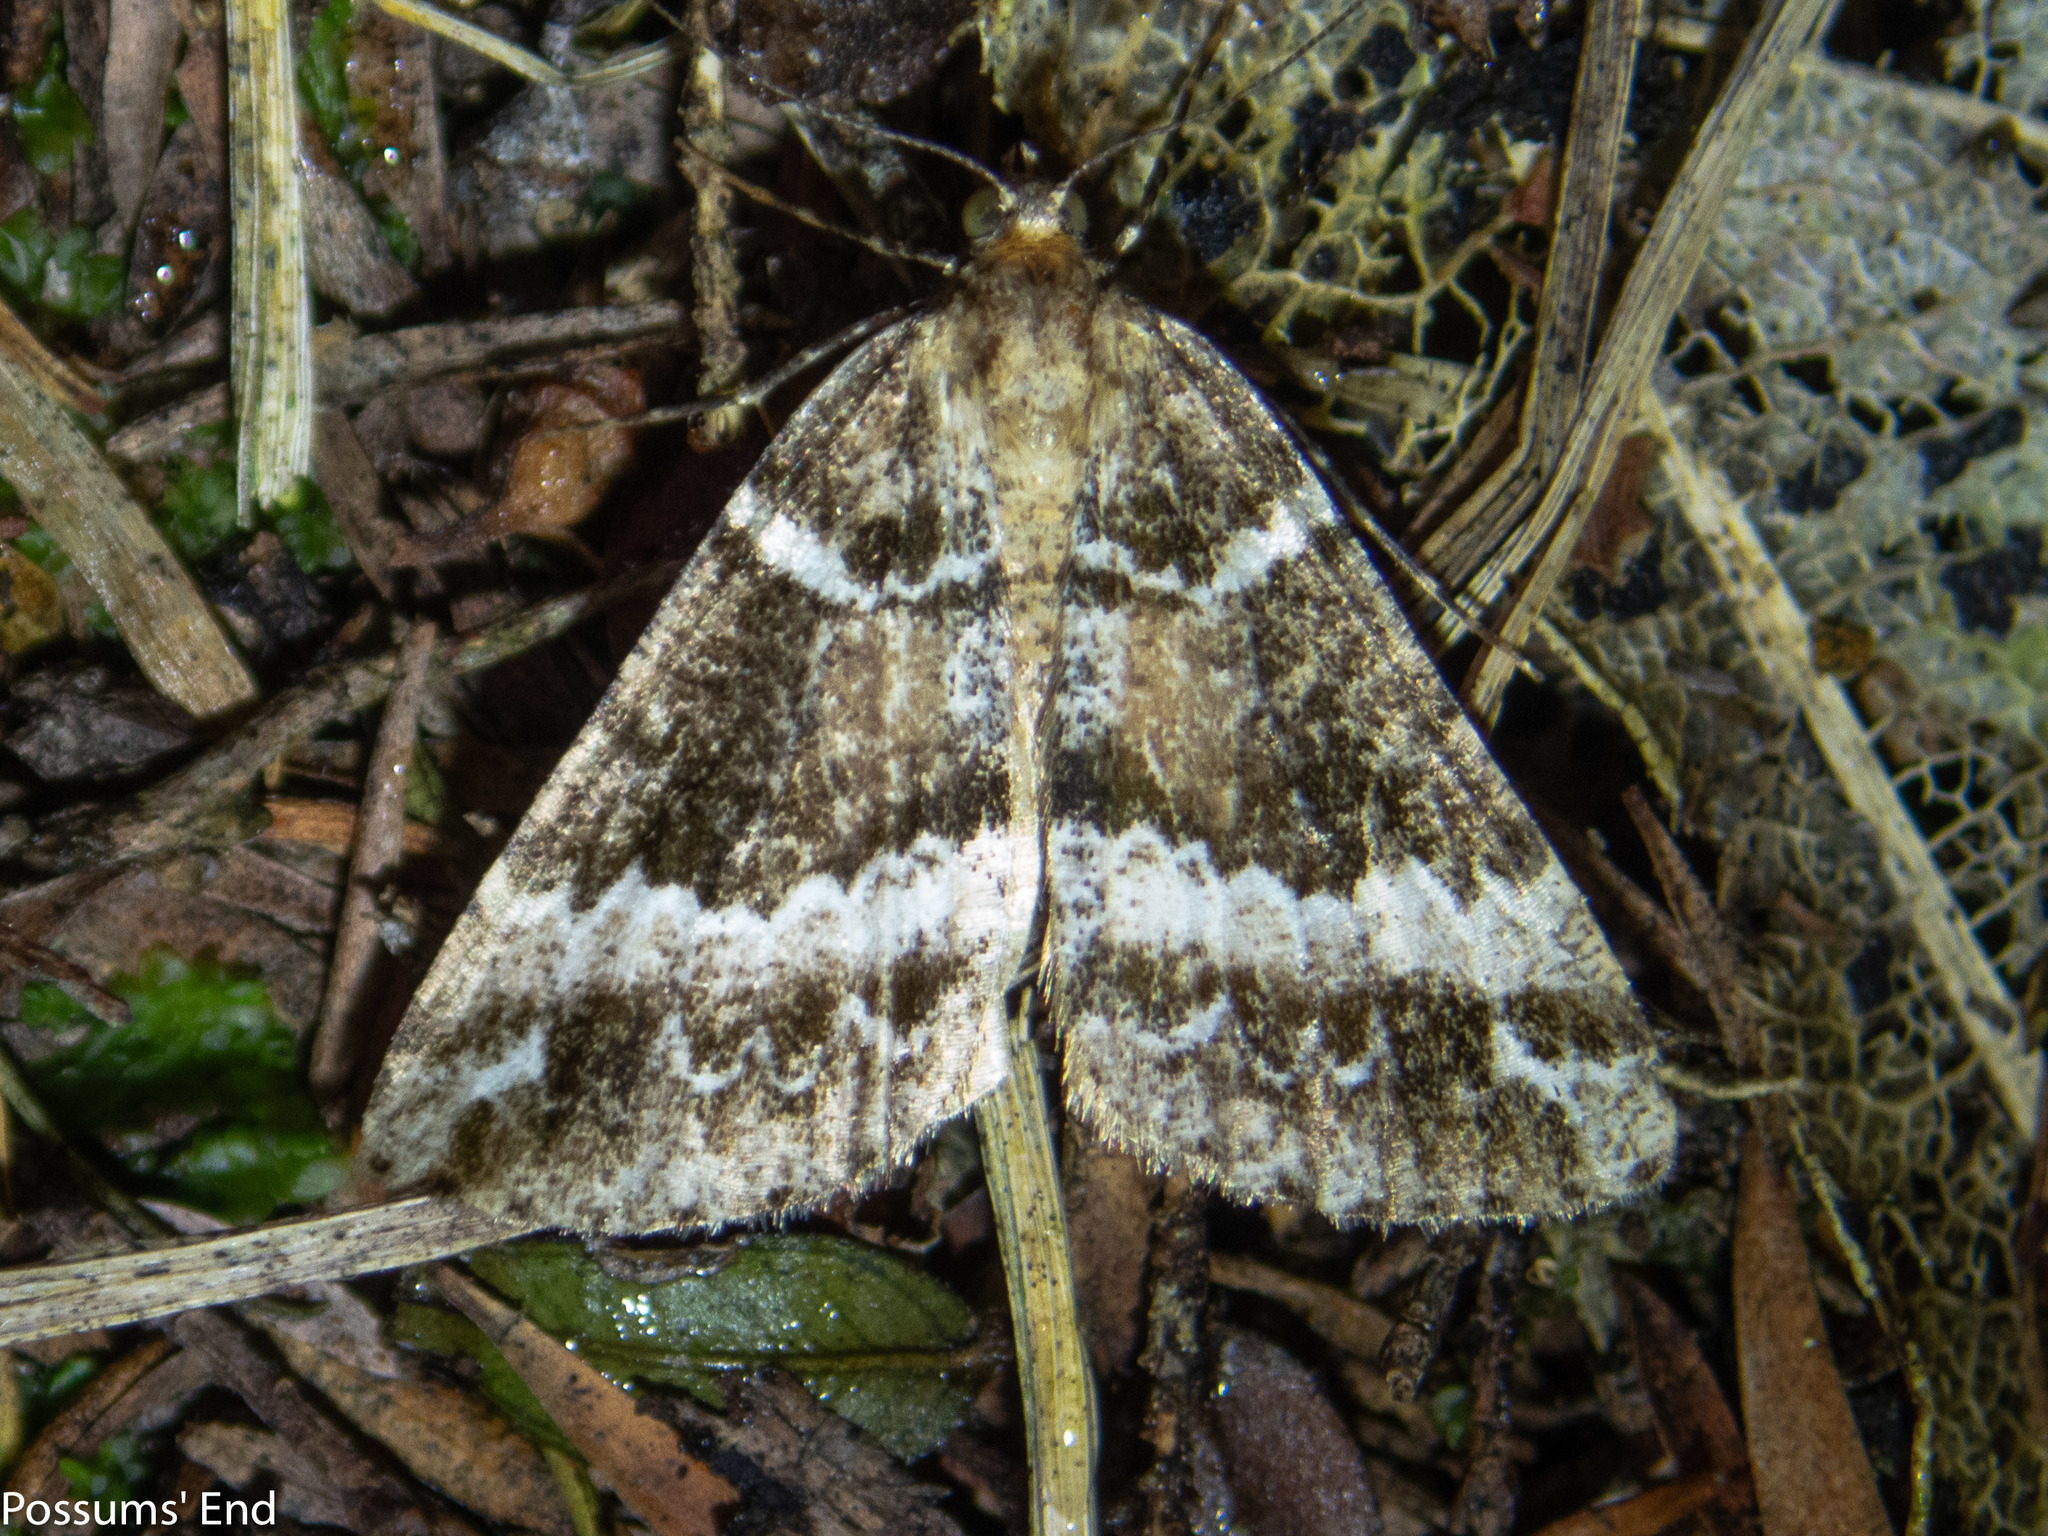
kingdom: Animalia
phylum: Arthropoda
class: Insecta
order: Lepidoptera
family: Geometridae
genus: Pseudocoremia
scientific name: Pseudocoremia
